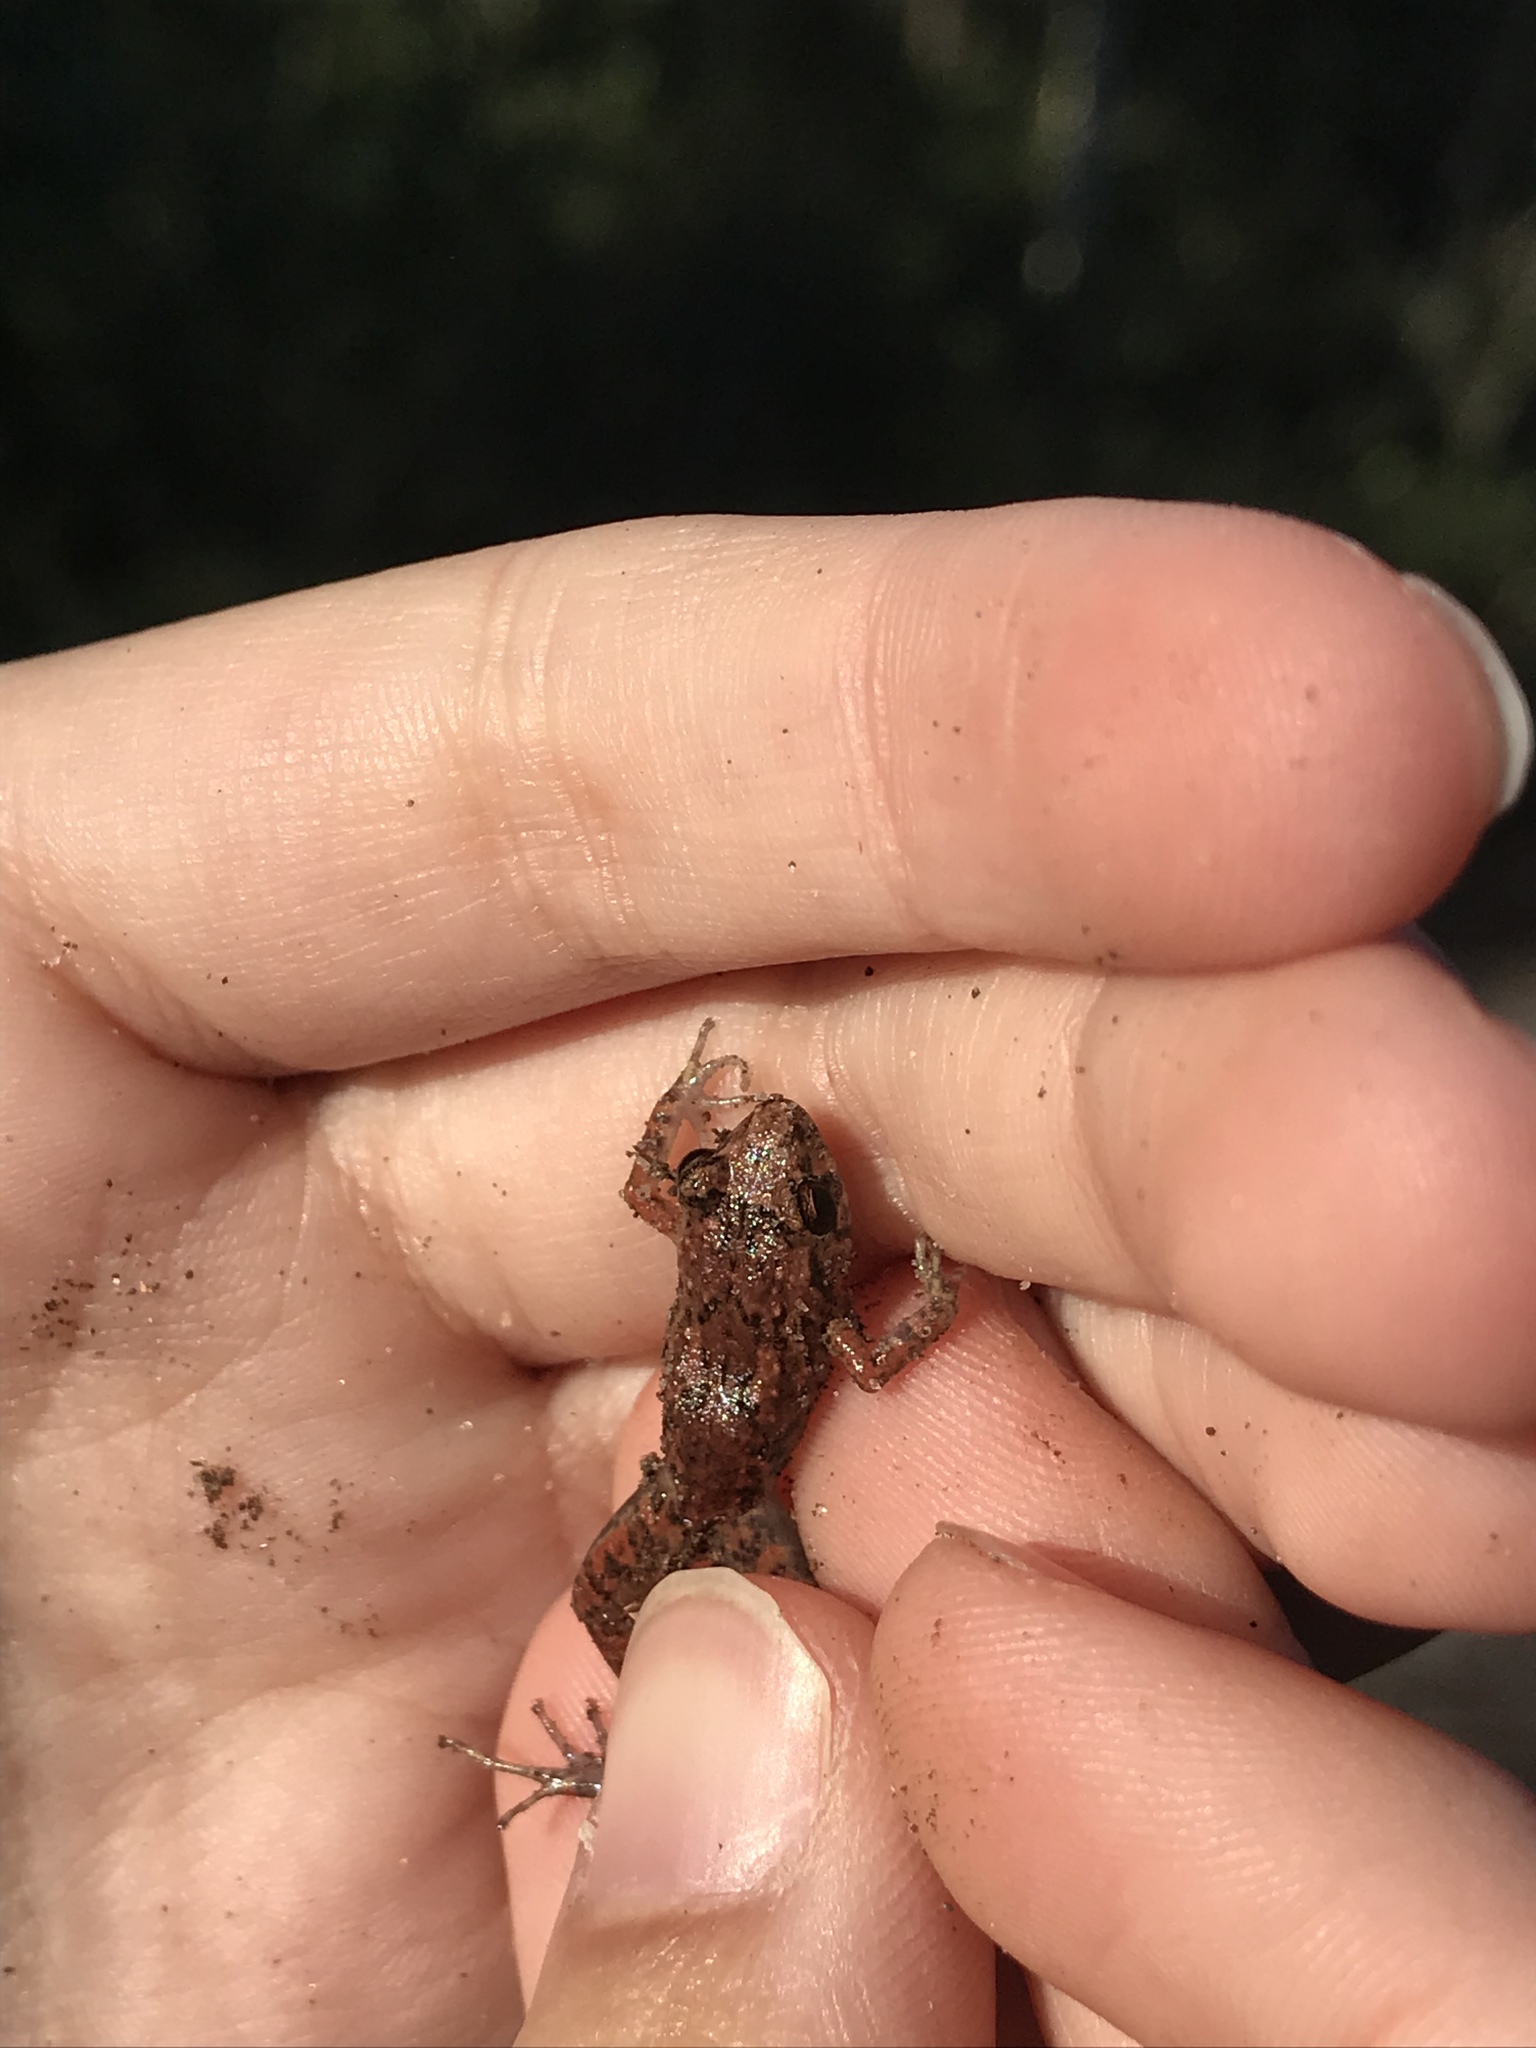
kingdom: Animalia
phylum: Chordata
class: Amphibia
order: Anura
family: Eleutherodactylidae
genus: Eleutherodactylus
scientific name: Eleutherodactylus planirostris
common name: Greenhouse frog
